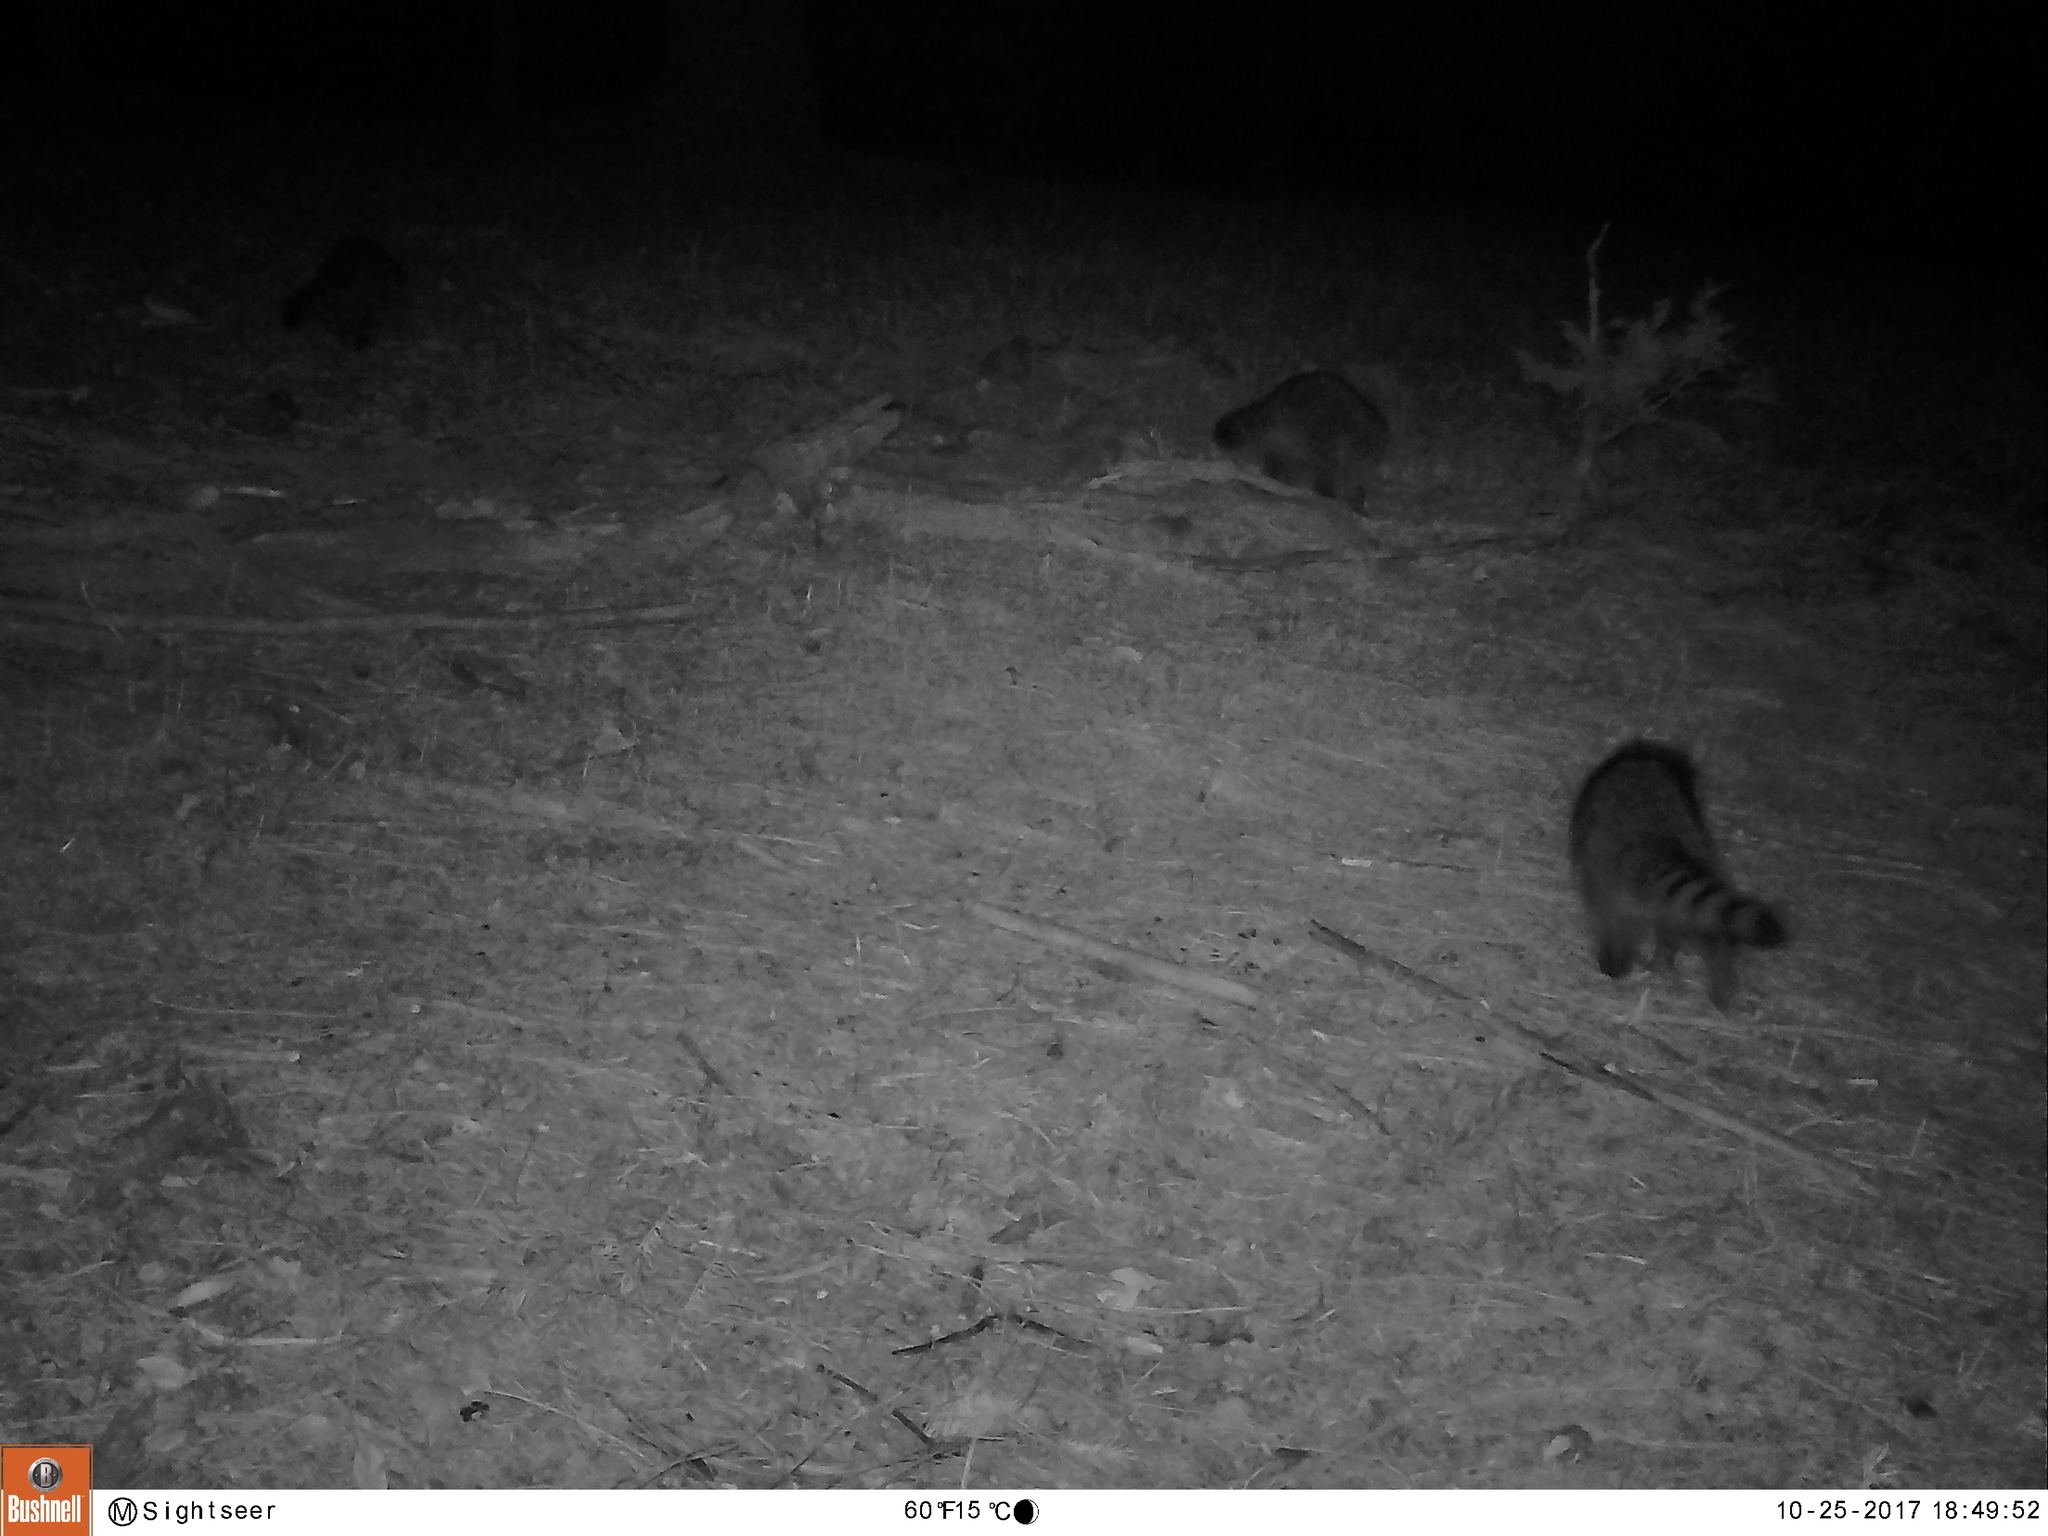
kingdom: Animalia
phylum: Chordata
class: Mammalia
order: Carnivora
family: Procyonidae
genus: Procyon
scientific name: Procyon lotor
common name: Raccoon
